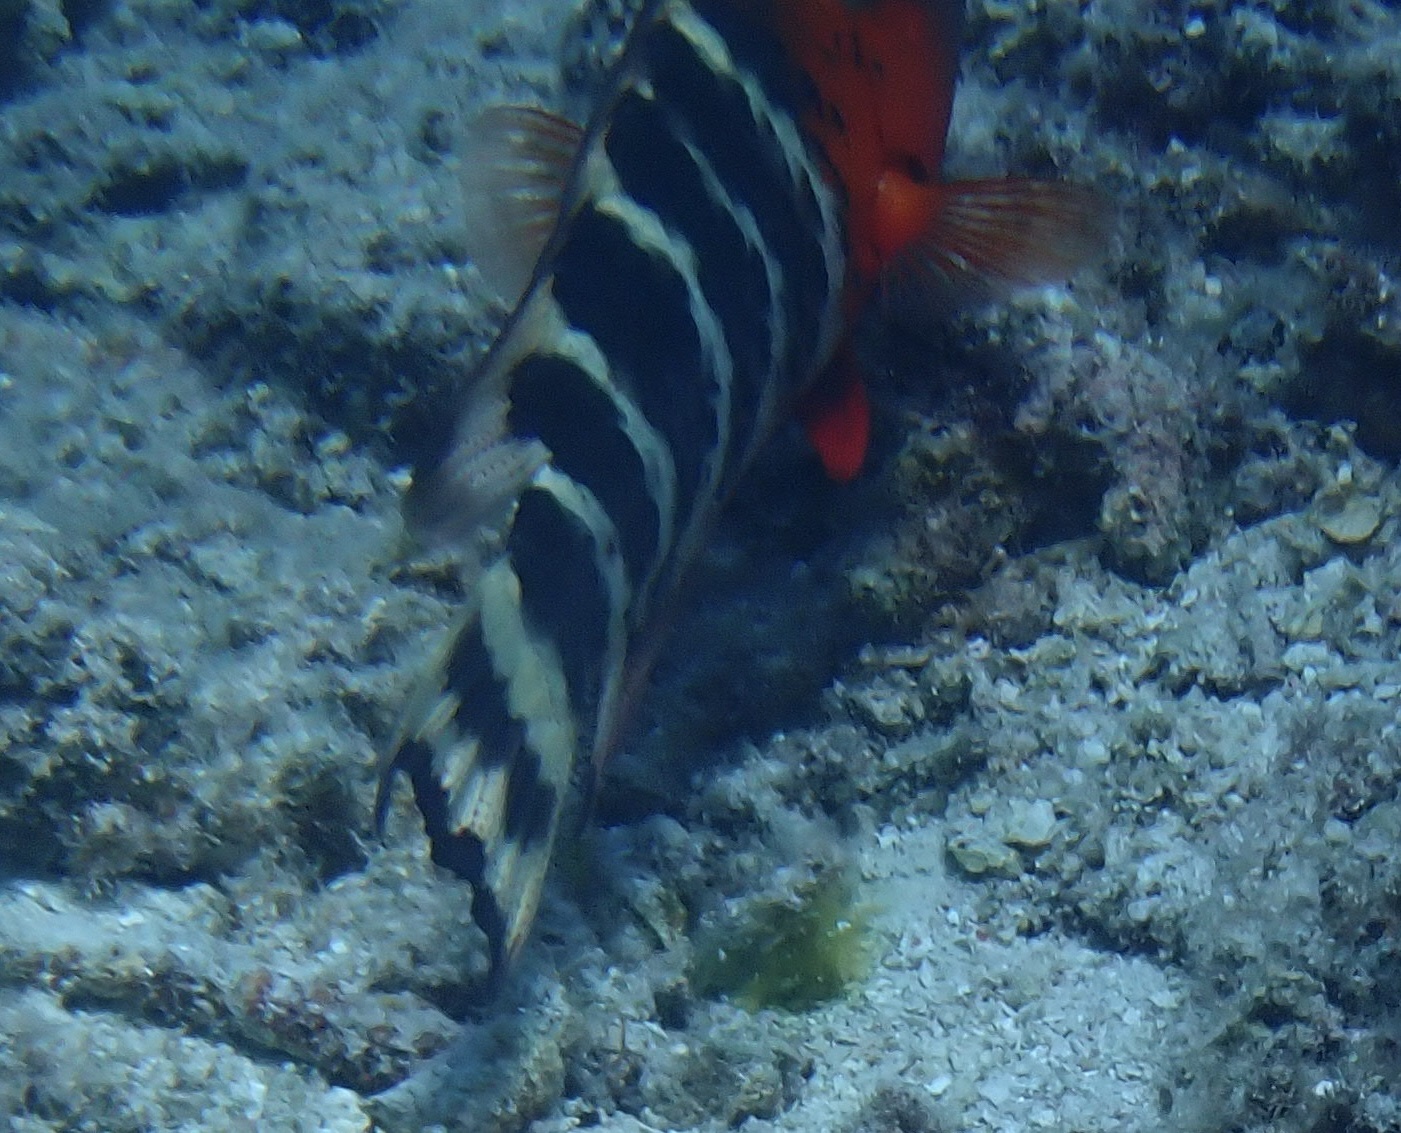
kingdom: Animalia
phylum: Chordata
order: Perciformes
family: Labridae
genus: Cheilinus
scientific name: Cheilinus fasciatus
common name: Red-breasted wrasse
